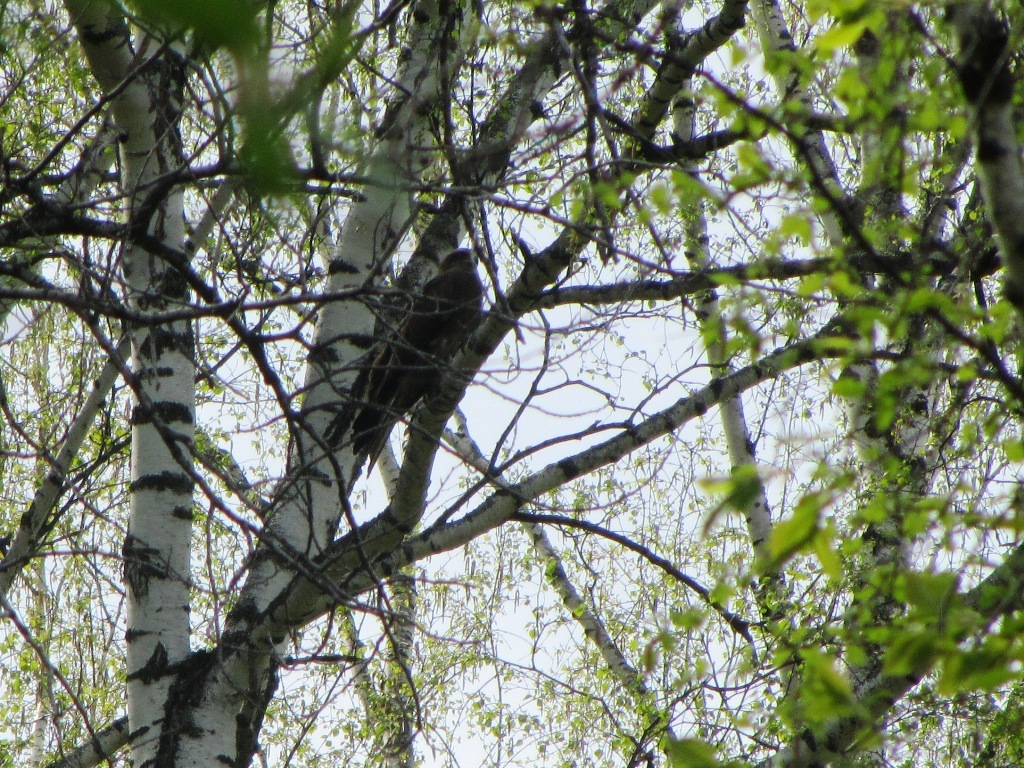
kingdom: Animalia
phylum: Chordata
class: Aves
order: Accipitriformes
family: Accipitridae
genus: Milvus
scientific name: Milvus migrans
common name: Black kite
